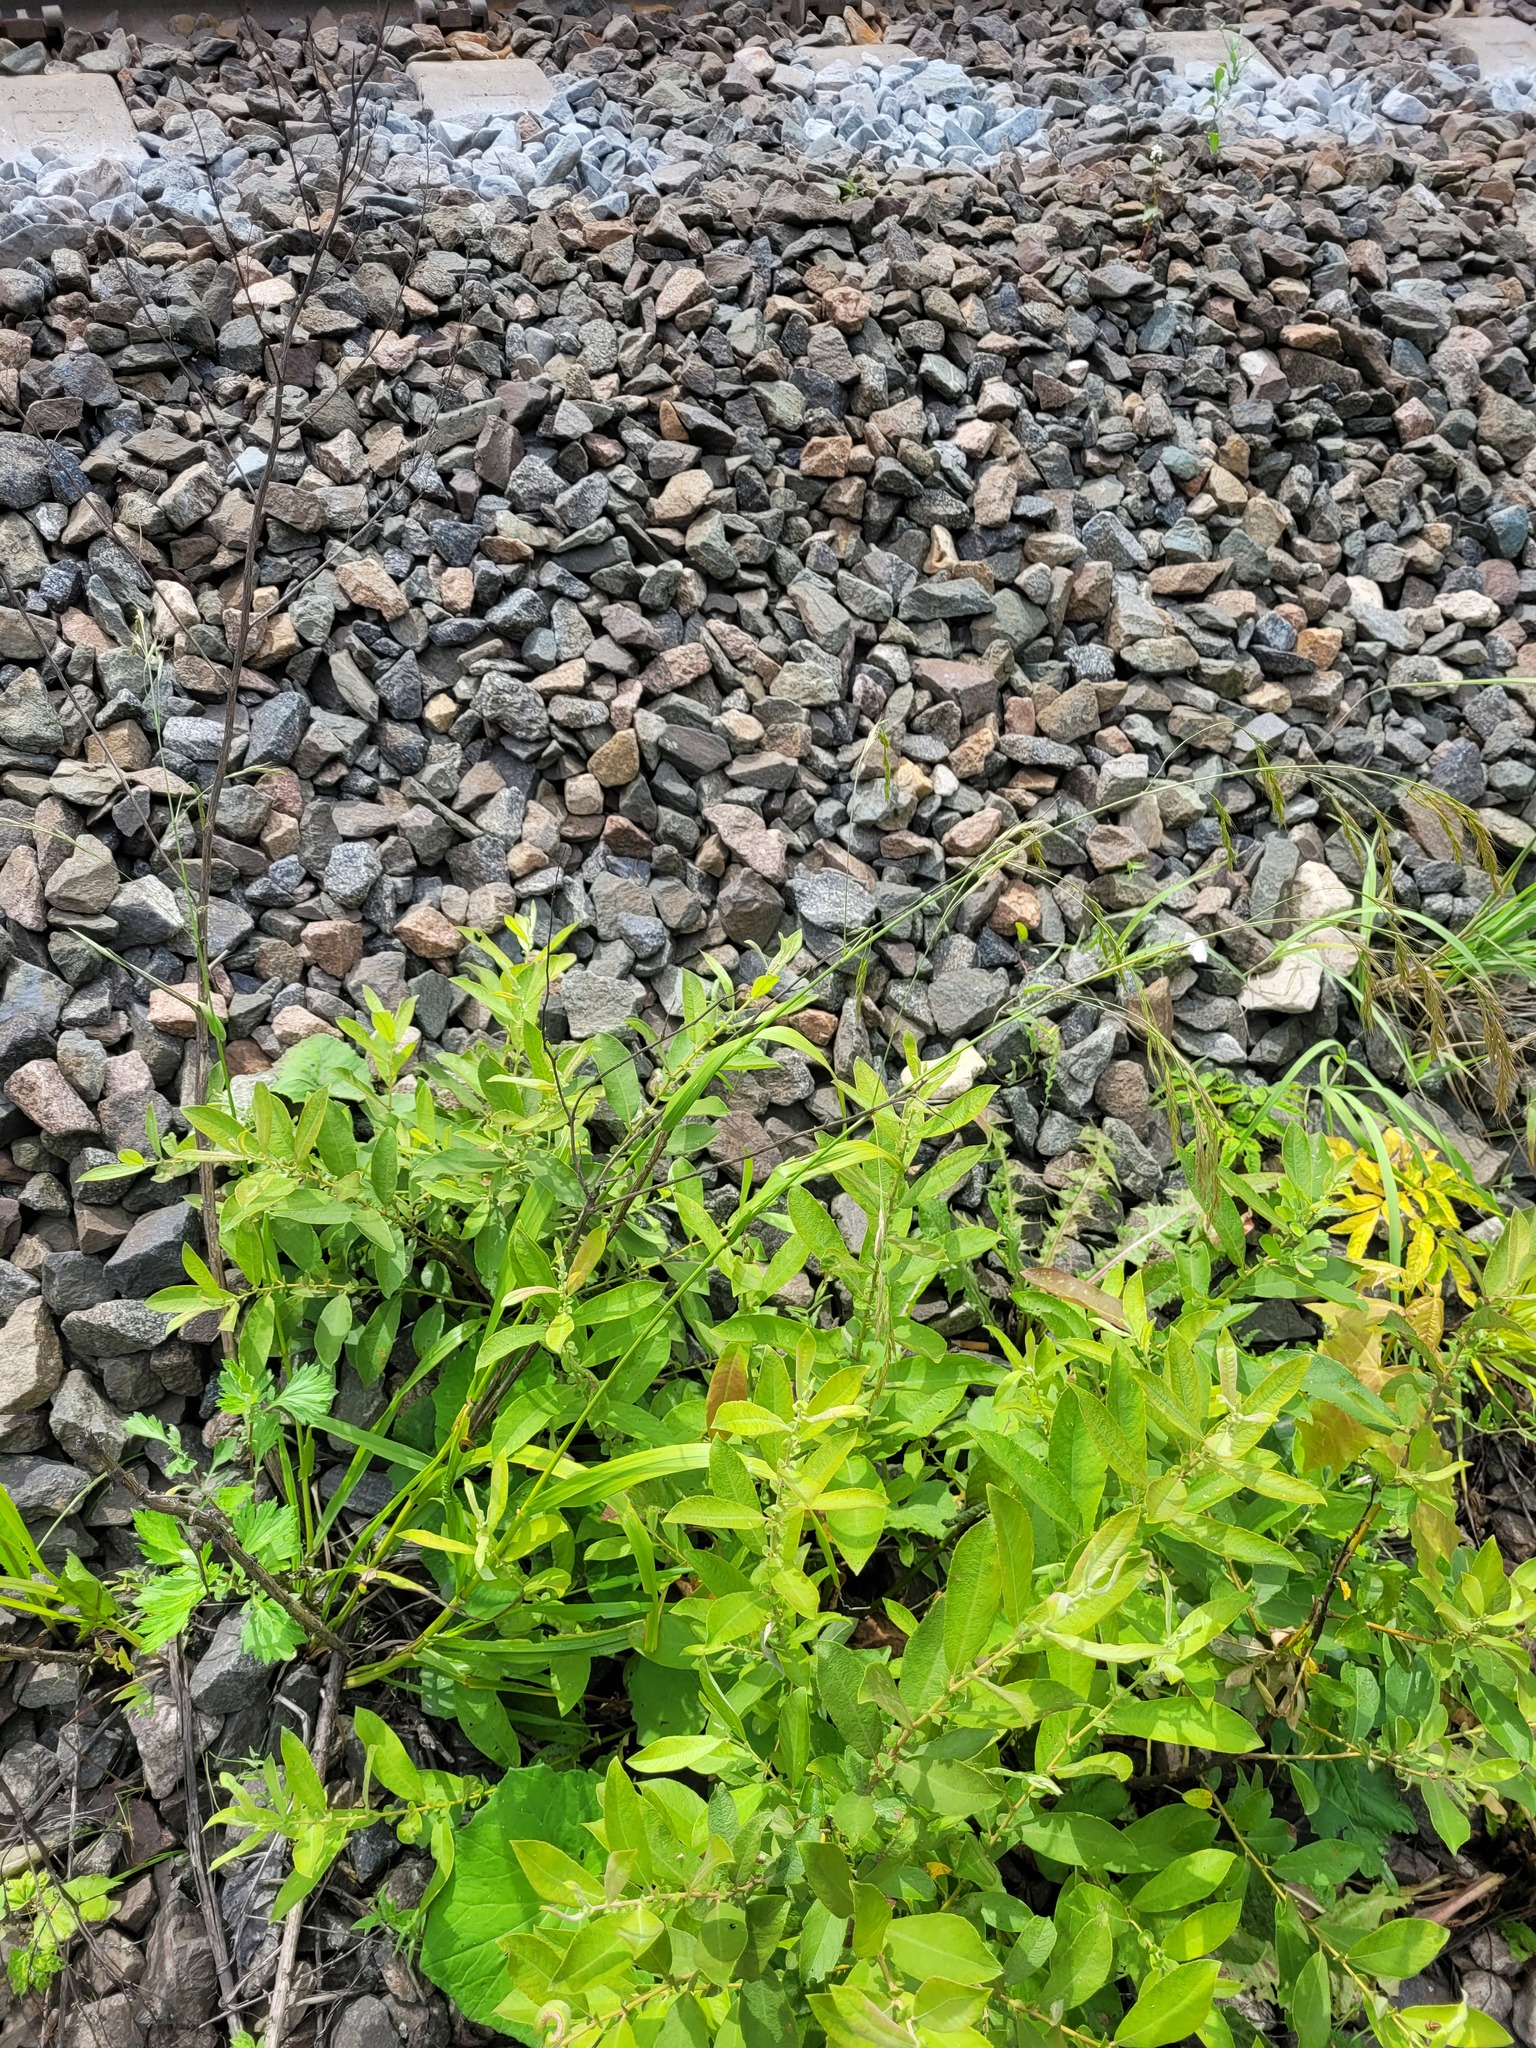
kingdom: Plantae
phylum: Tracheophyta
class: Magnoliopsida
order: Malpighiales
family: Salicaceae
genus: Salix
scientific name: Salix cinerea
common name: Common sallow
